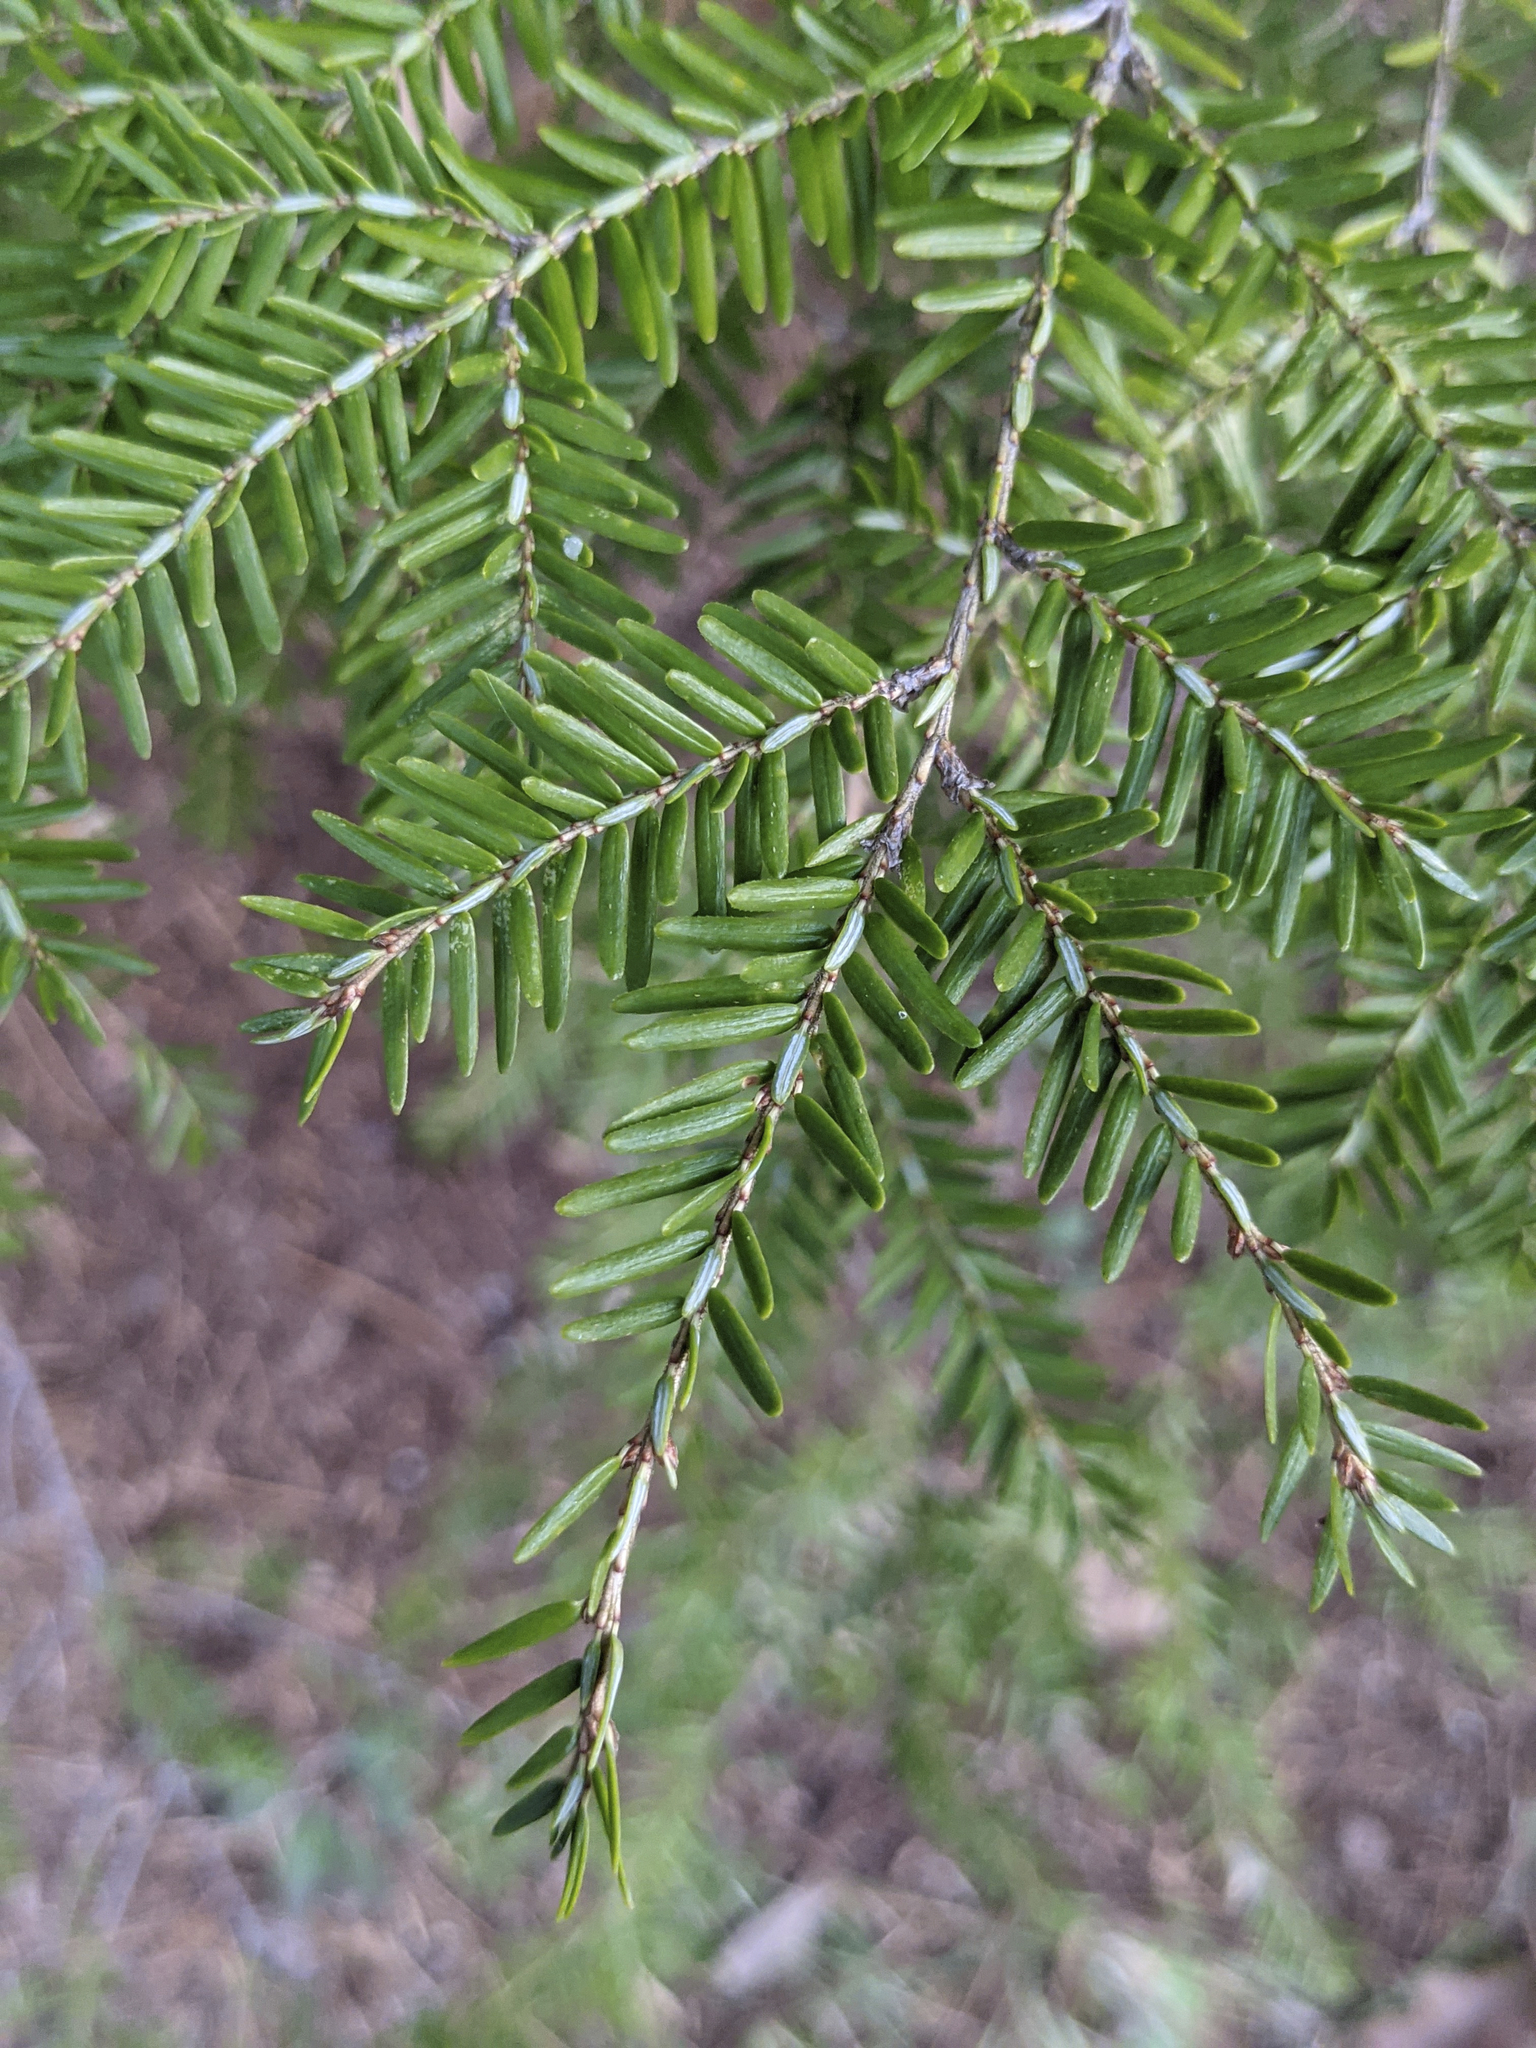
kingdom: Plantae
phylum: Tracheophyta
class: Pinopsida
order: Pinales
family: Pinaceae
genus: Tsuga
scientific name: Tsuga canadensis
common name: Eastern hemlock
